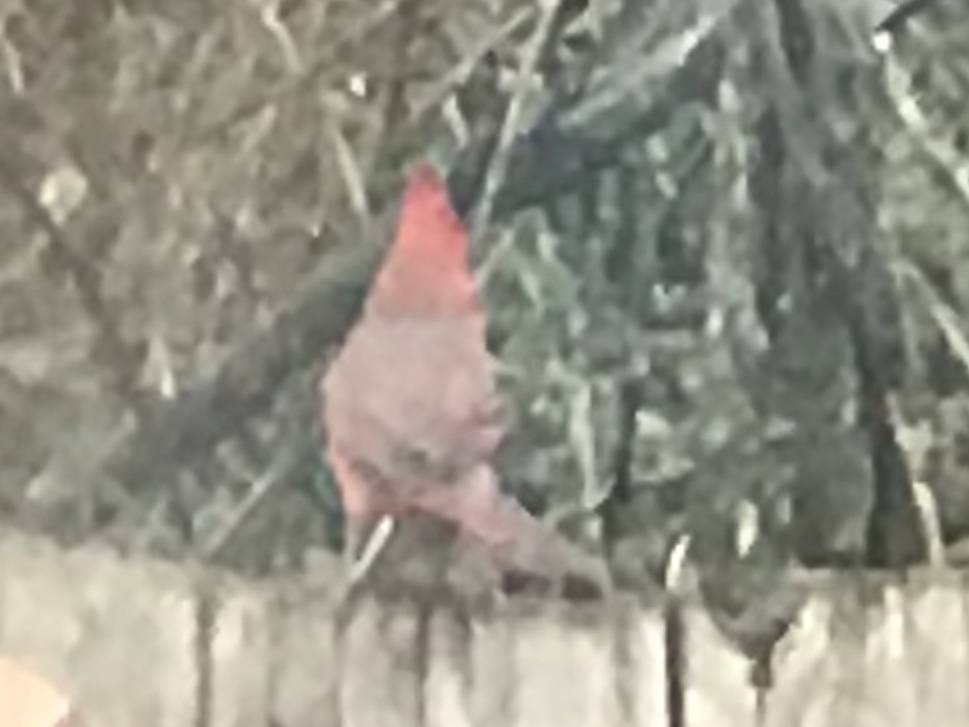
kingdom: Animalia
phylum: Chordata
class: Aves
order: Passeriformes
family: Cardinalidae
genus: Cardinalis
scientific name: Cardinalis cardinalis
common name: Northern cardinal
